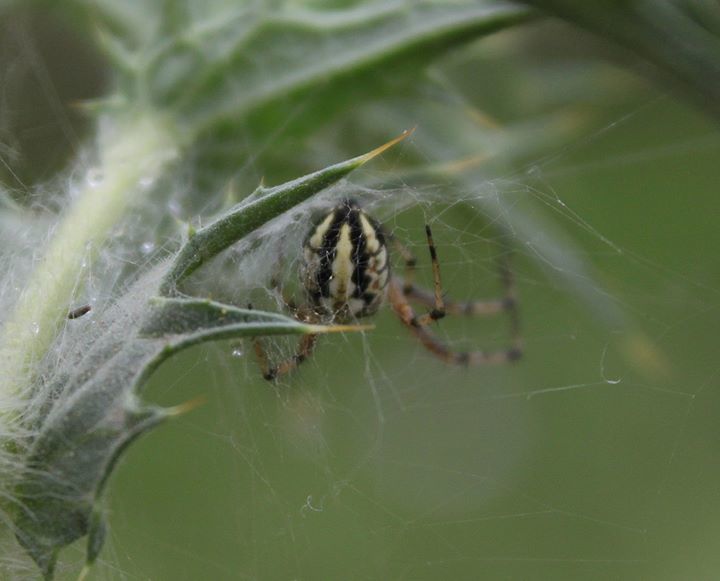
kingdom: Animalia
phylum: Arthropoda
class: Arachnida
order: Araneae
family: Araneidae
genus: Neoscona
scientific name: Neoscona adianta
